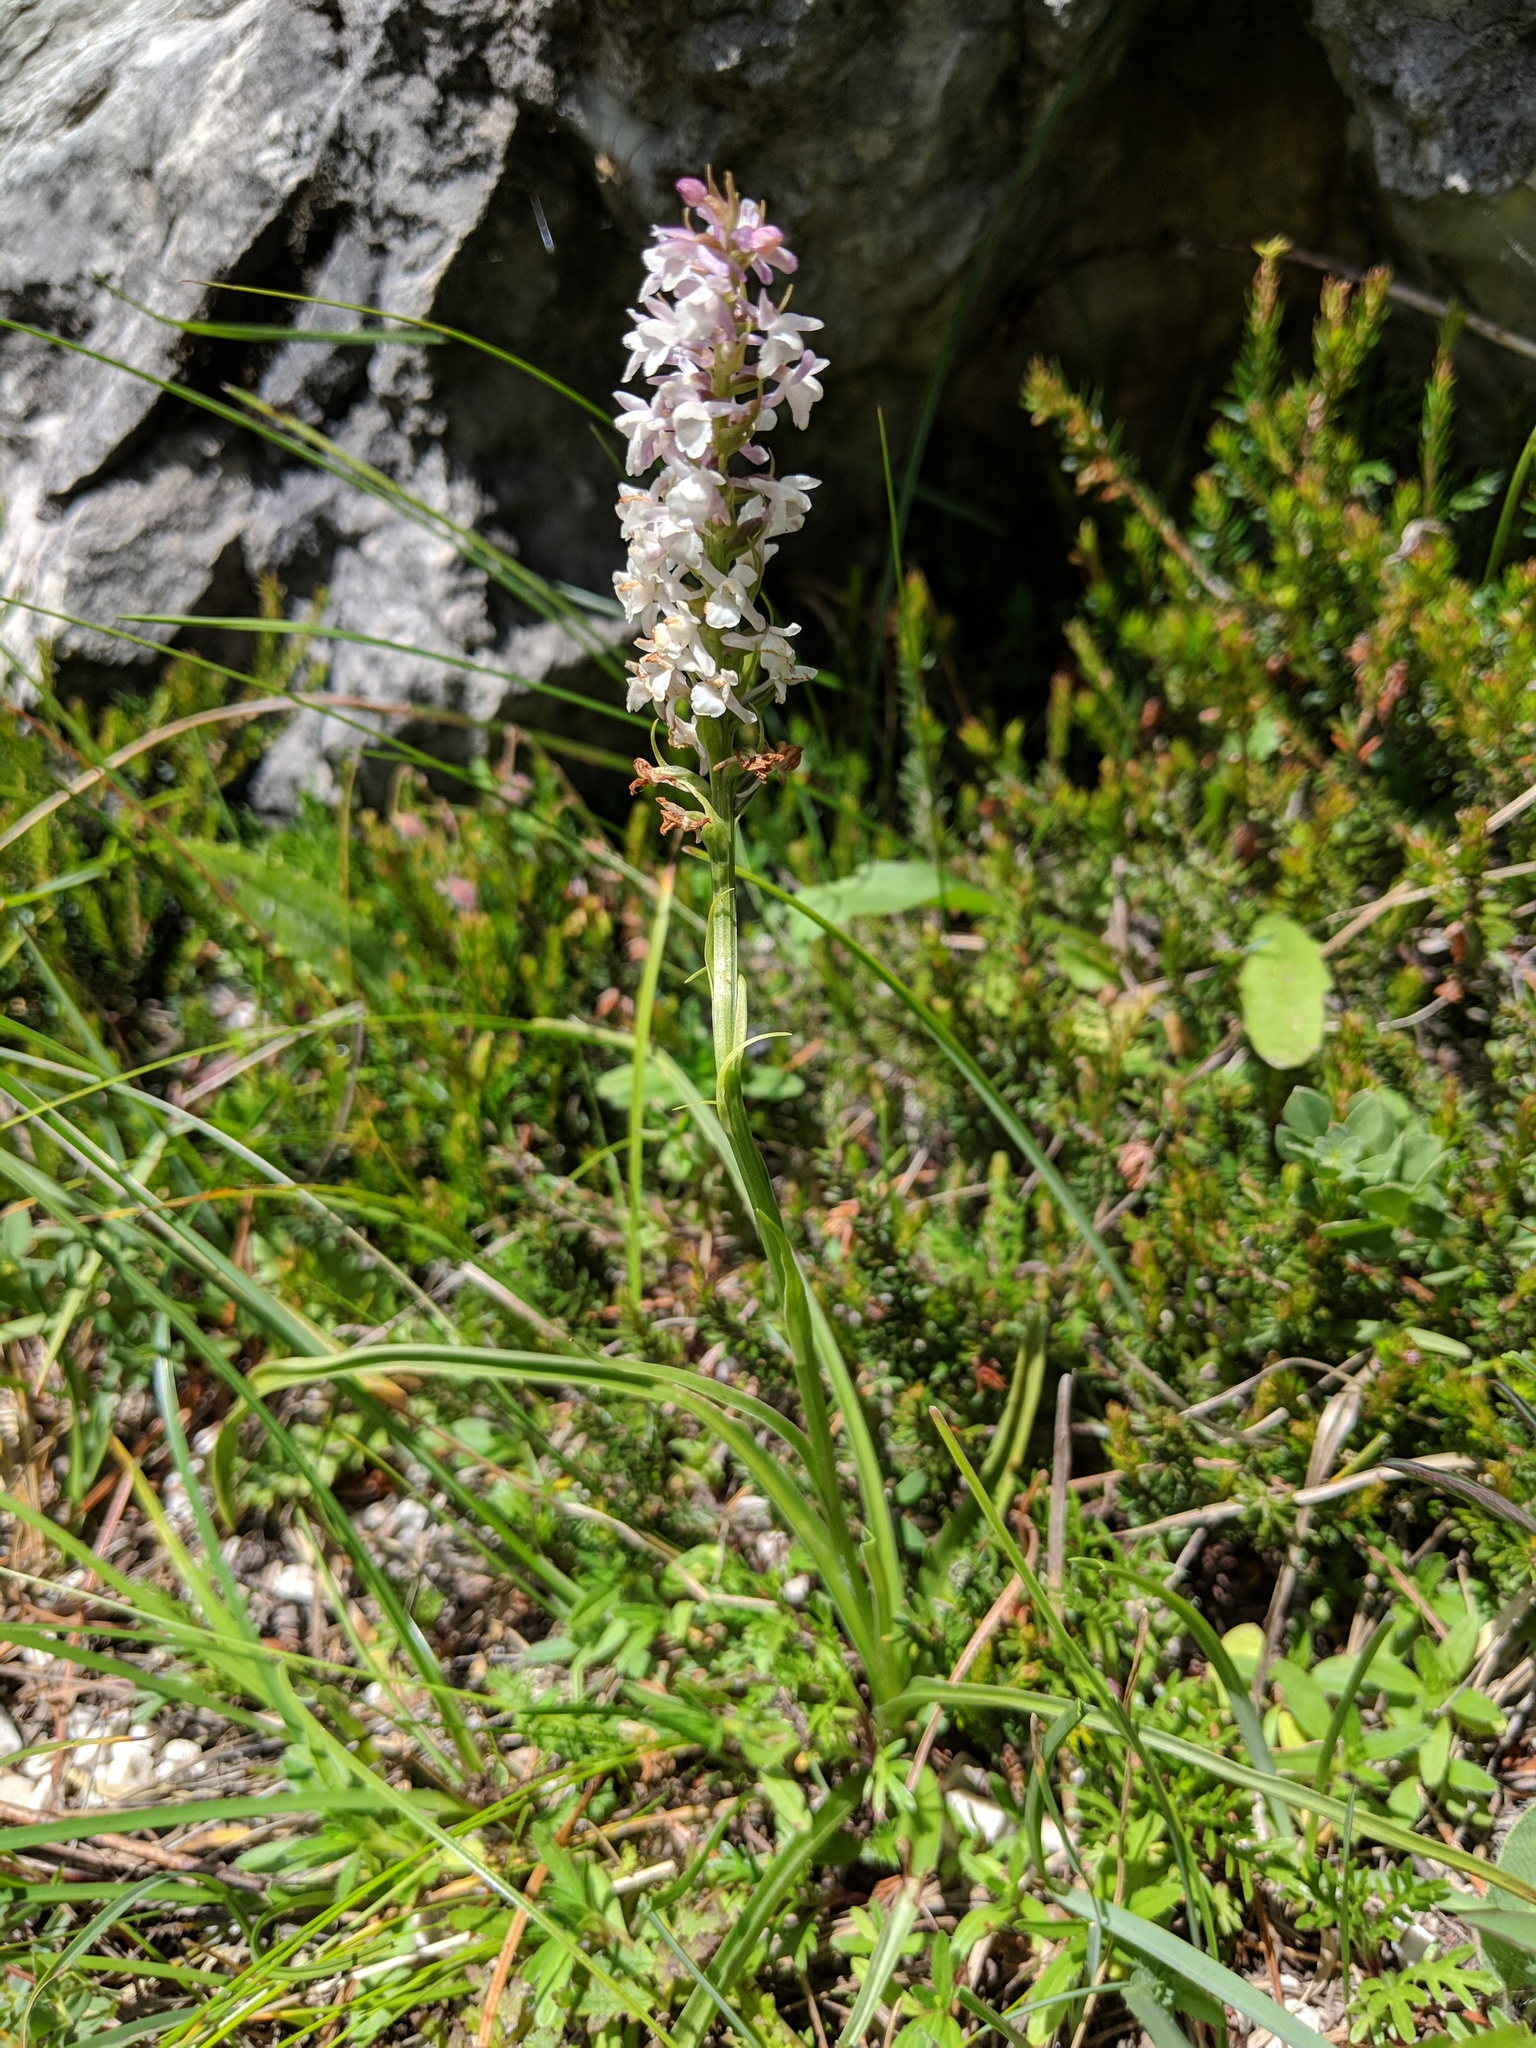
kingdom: Plantae
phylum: Tracheophyta
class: Liliopsida
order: Asparagales
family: Orchidaceae
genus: Gymnadenia
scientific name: Gymnadenia odoratissima
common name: Scented gymnadenia
